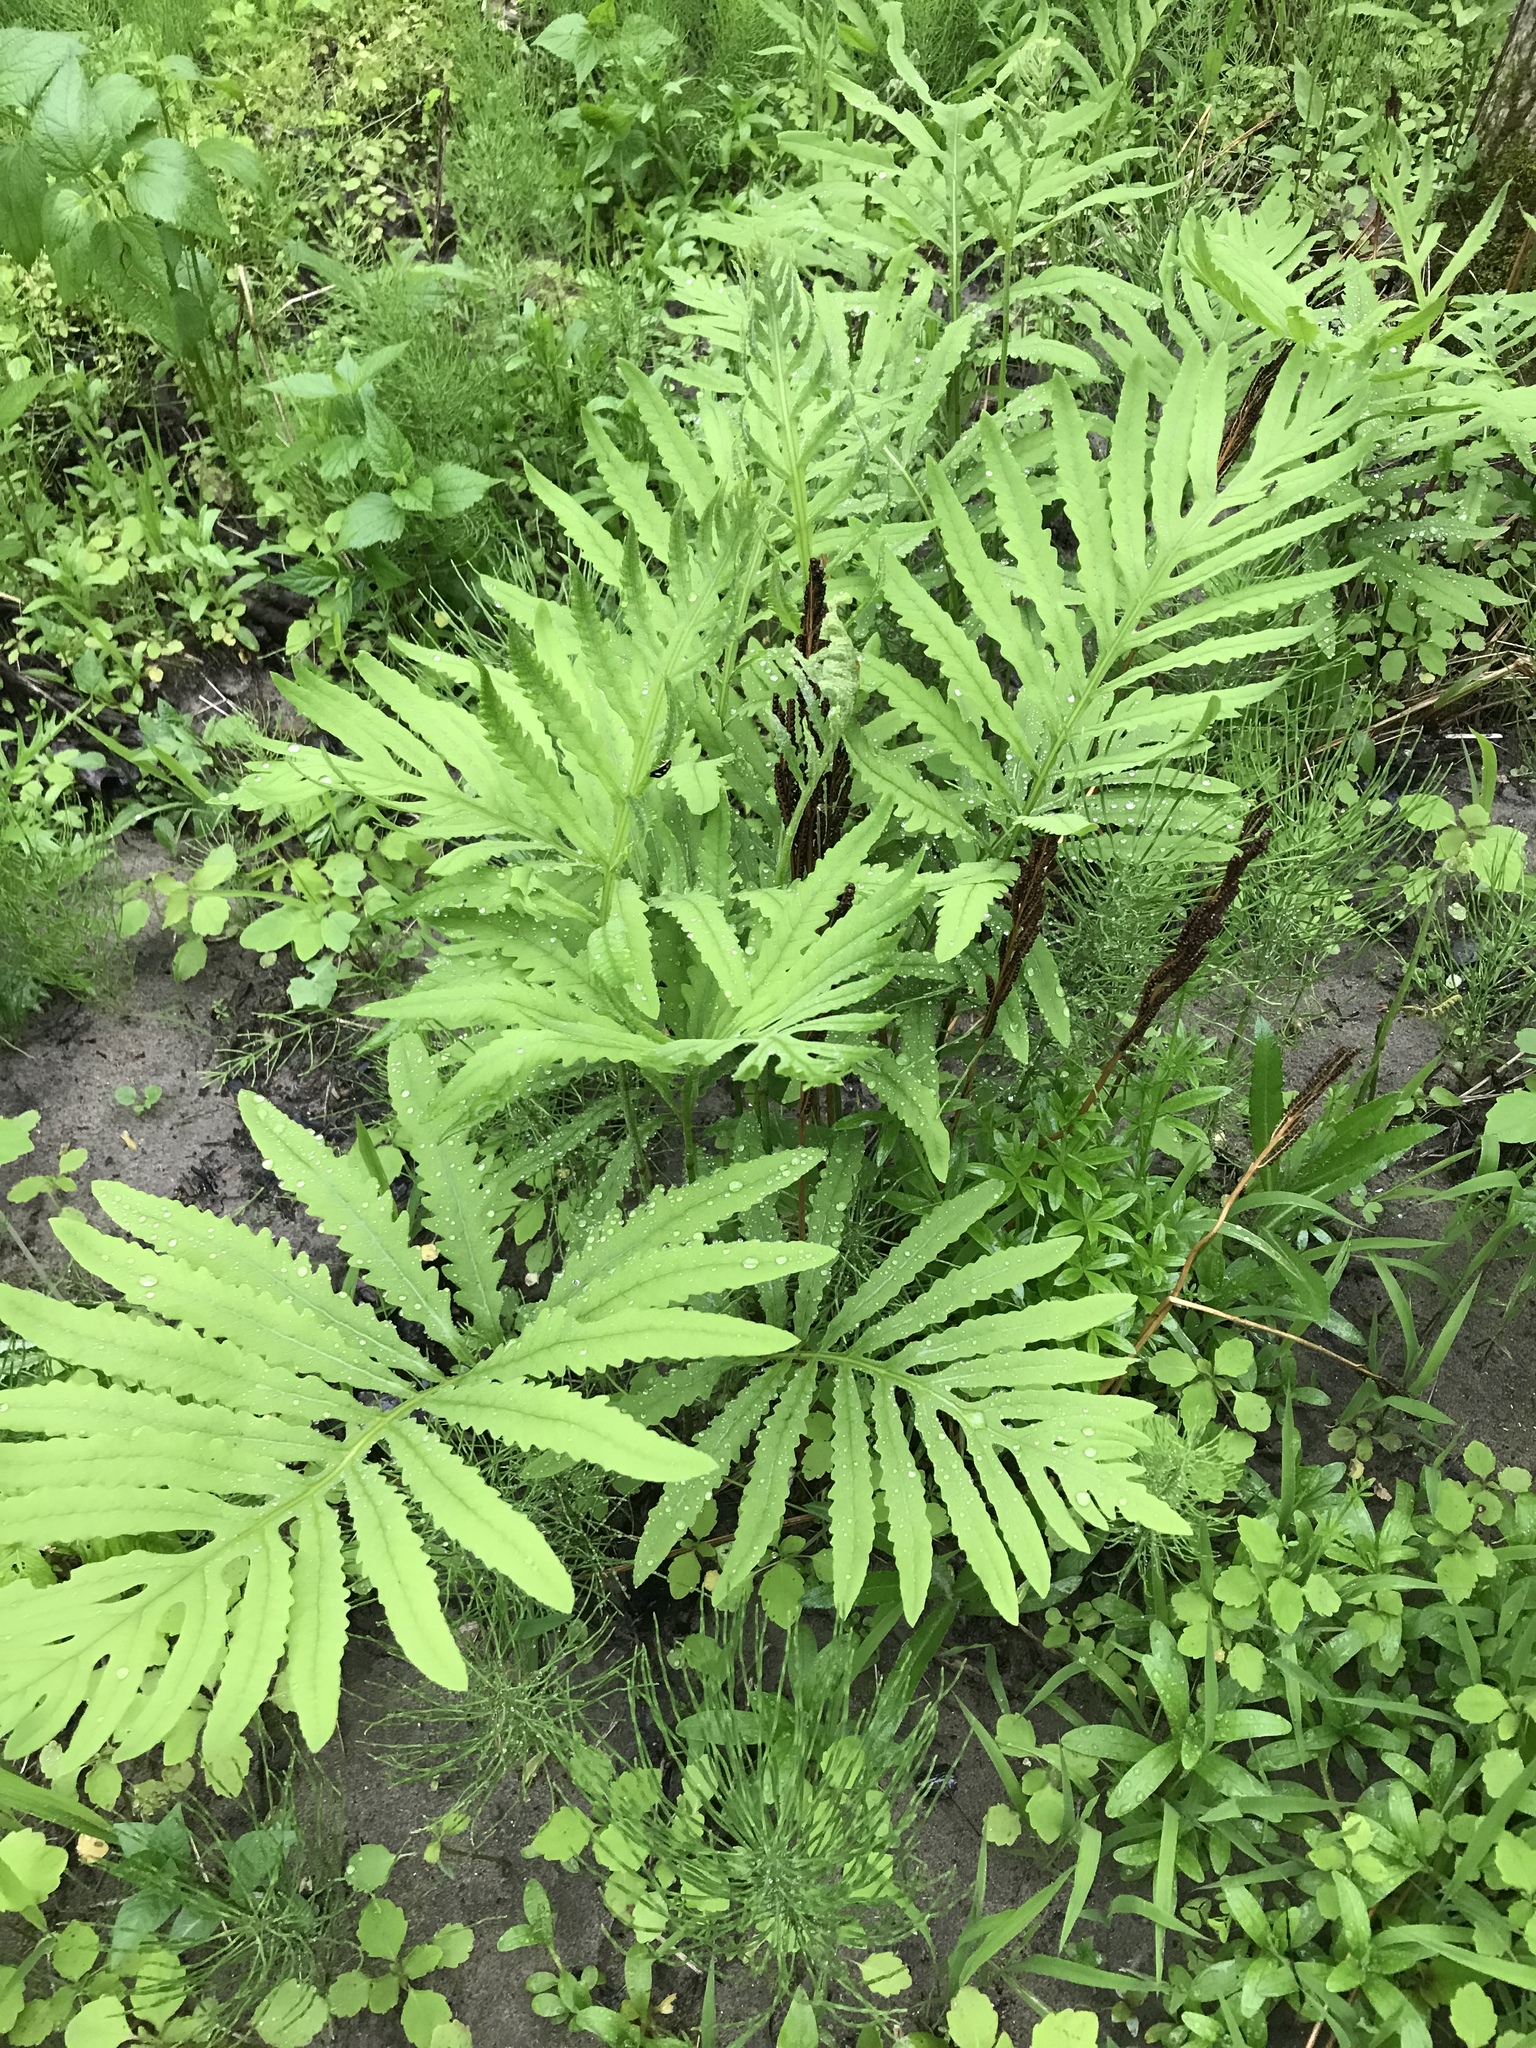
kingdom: Plantae
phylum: Tracheophyta
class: Polypodiopsida
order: Polypodiales
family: Onocleaceae
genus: Onoclea
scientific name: Onoclea sensibilis
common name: Sensitive fern
